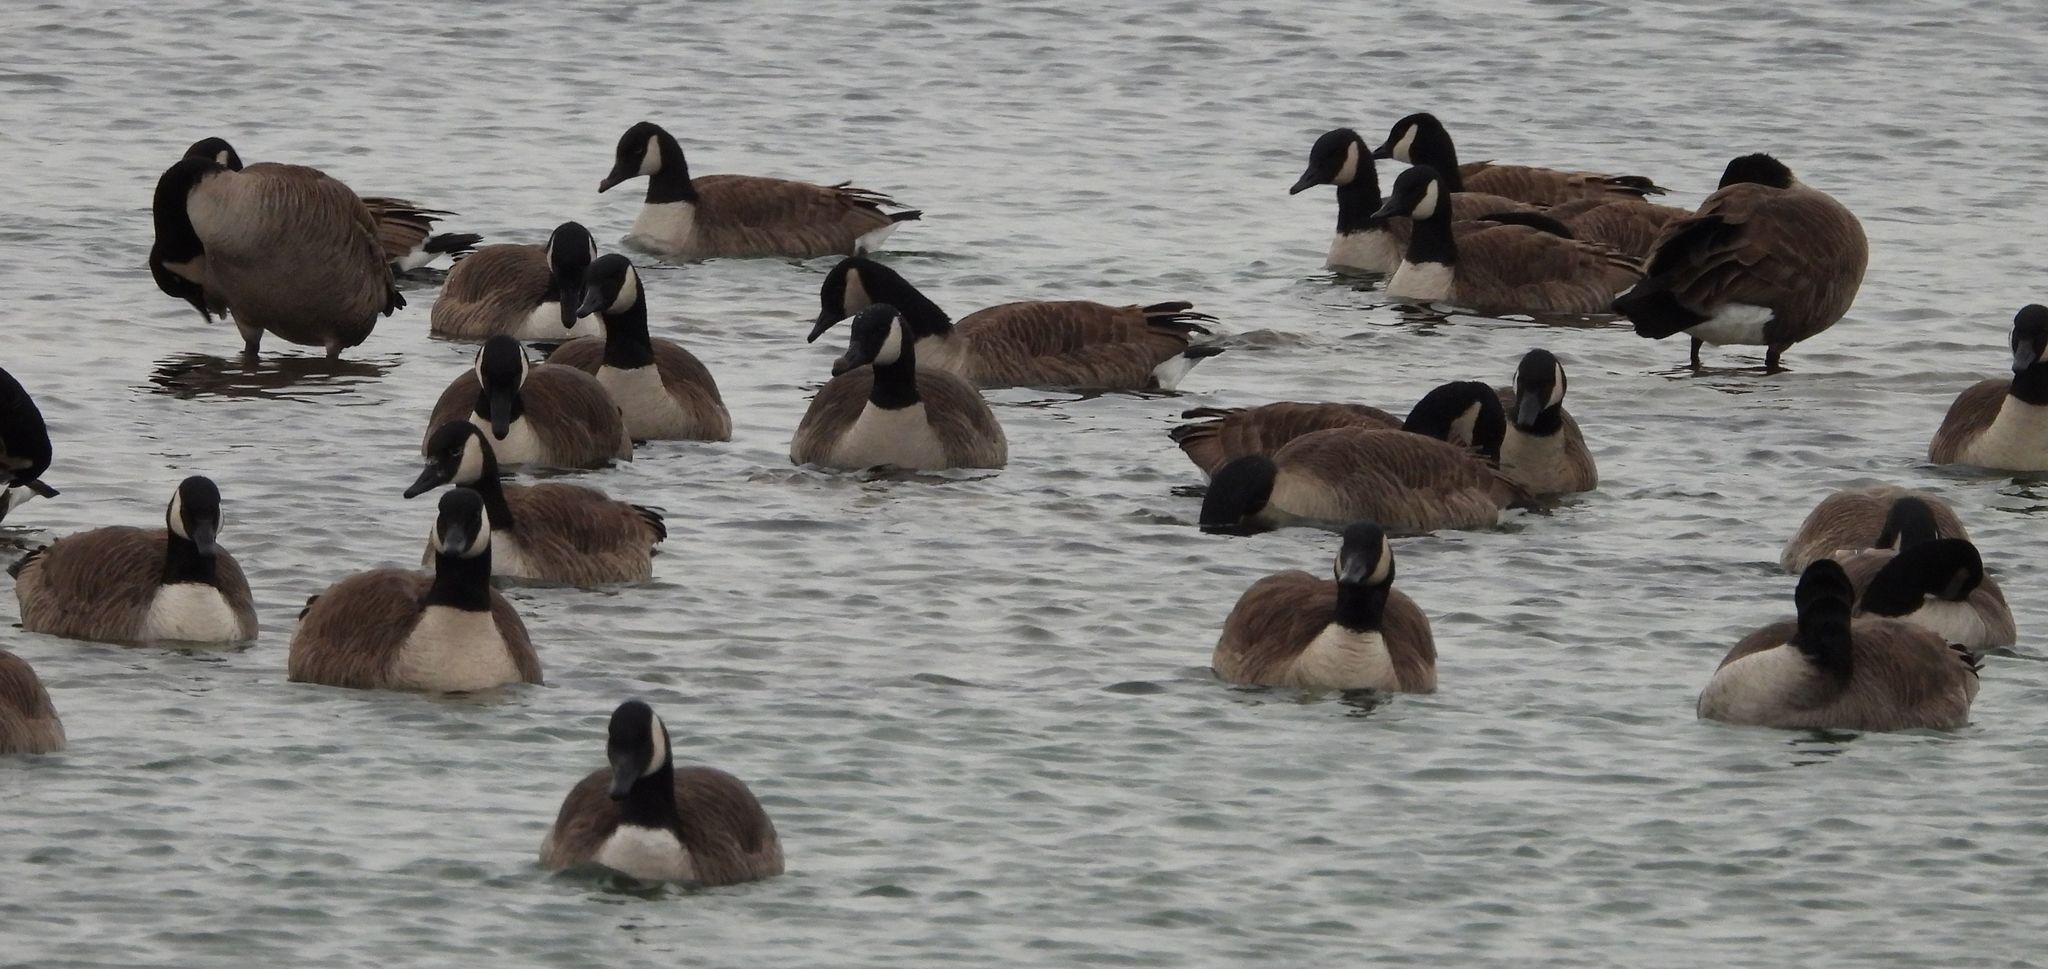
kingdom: Animalia
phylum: Chordata
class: Aves
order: Anseriformes
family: Anatidae
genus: Branta
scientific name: Branta canadensis
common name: Canada goose
